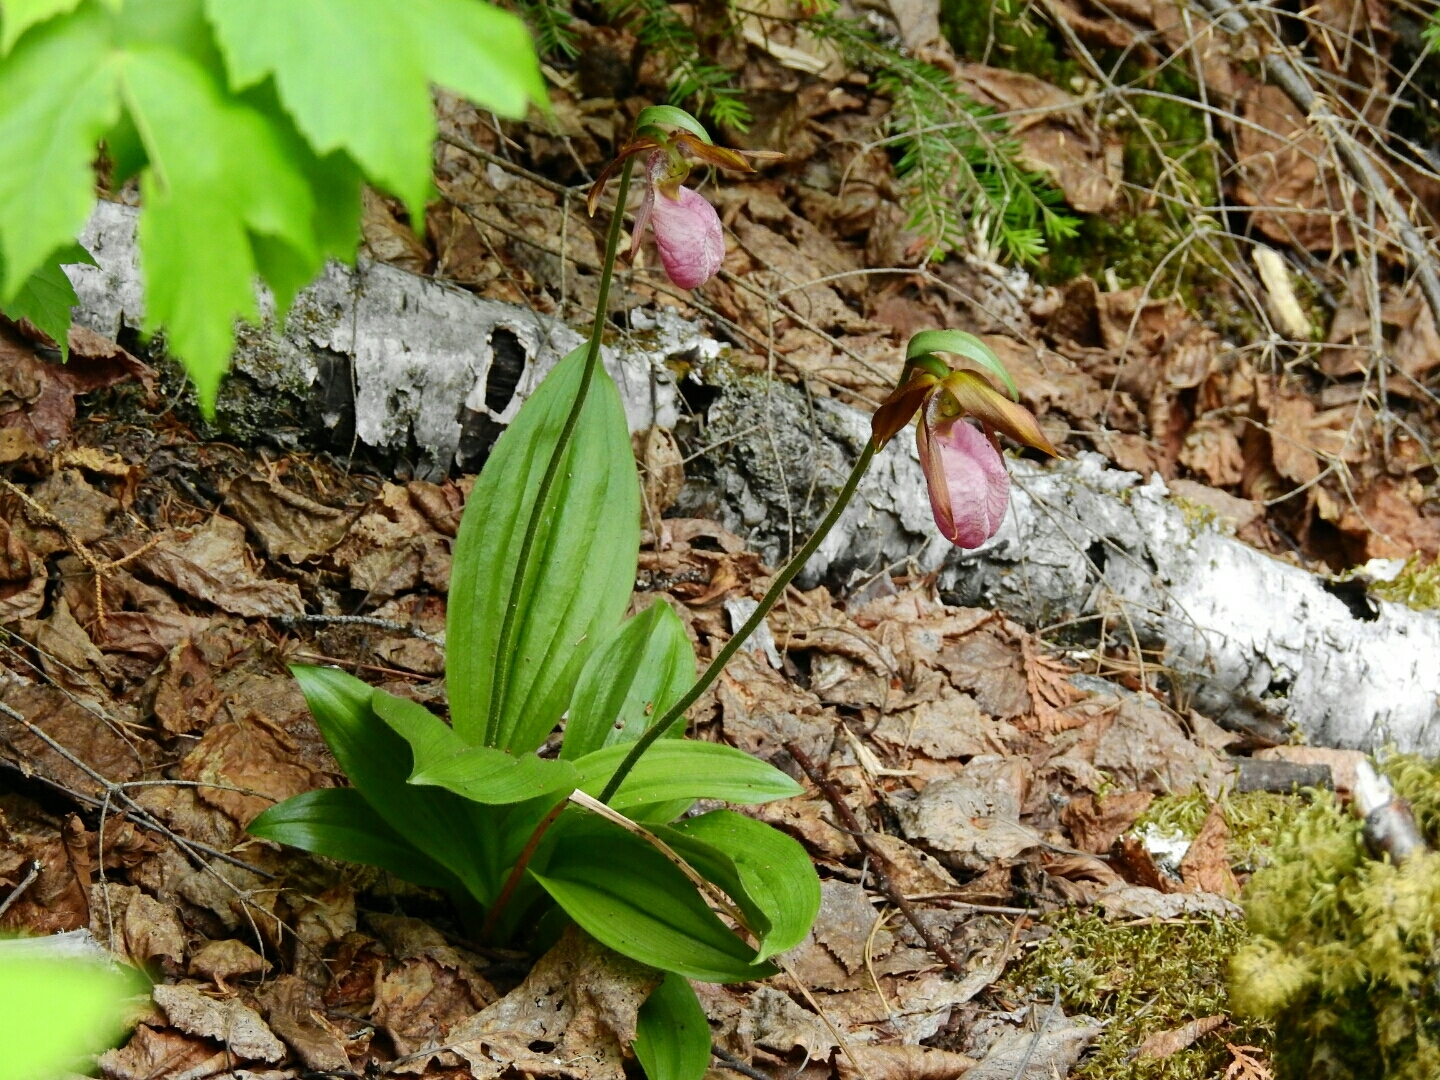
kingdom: Plantae
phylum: Tracheophyta
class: Liliopsida
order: Asparagales
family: Orchidaceae
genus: Cypripedium
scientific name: Cypripedium acaule
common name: Pink lady's-slipper
